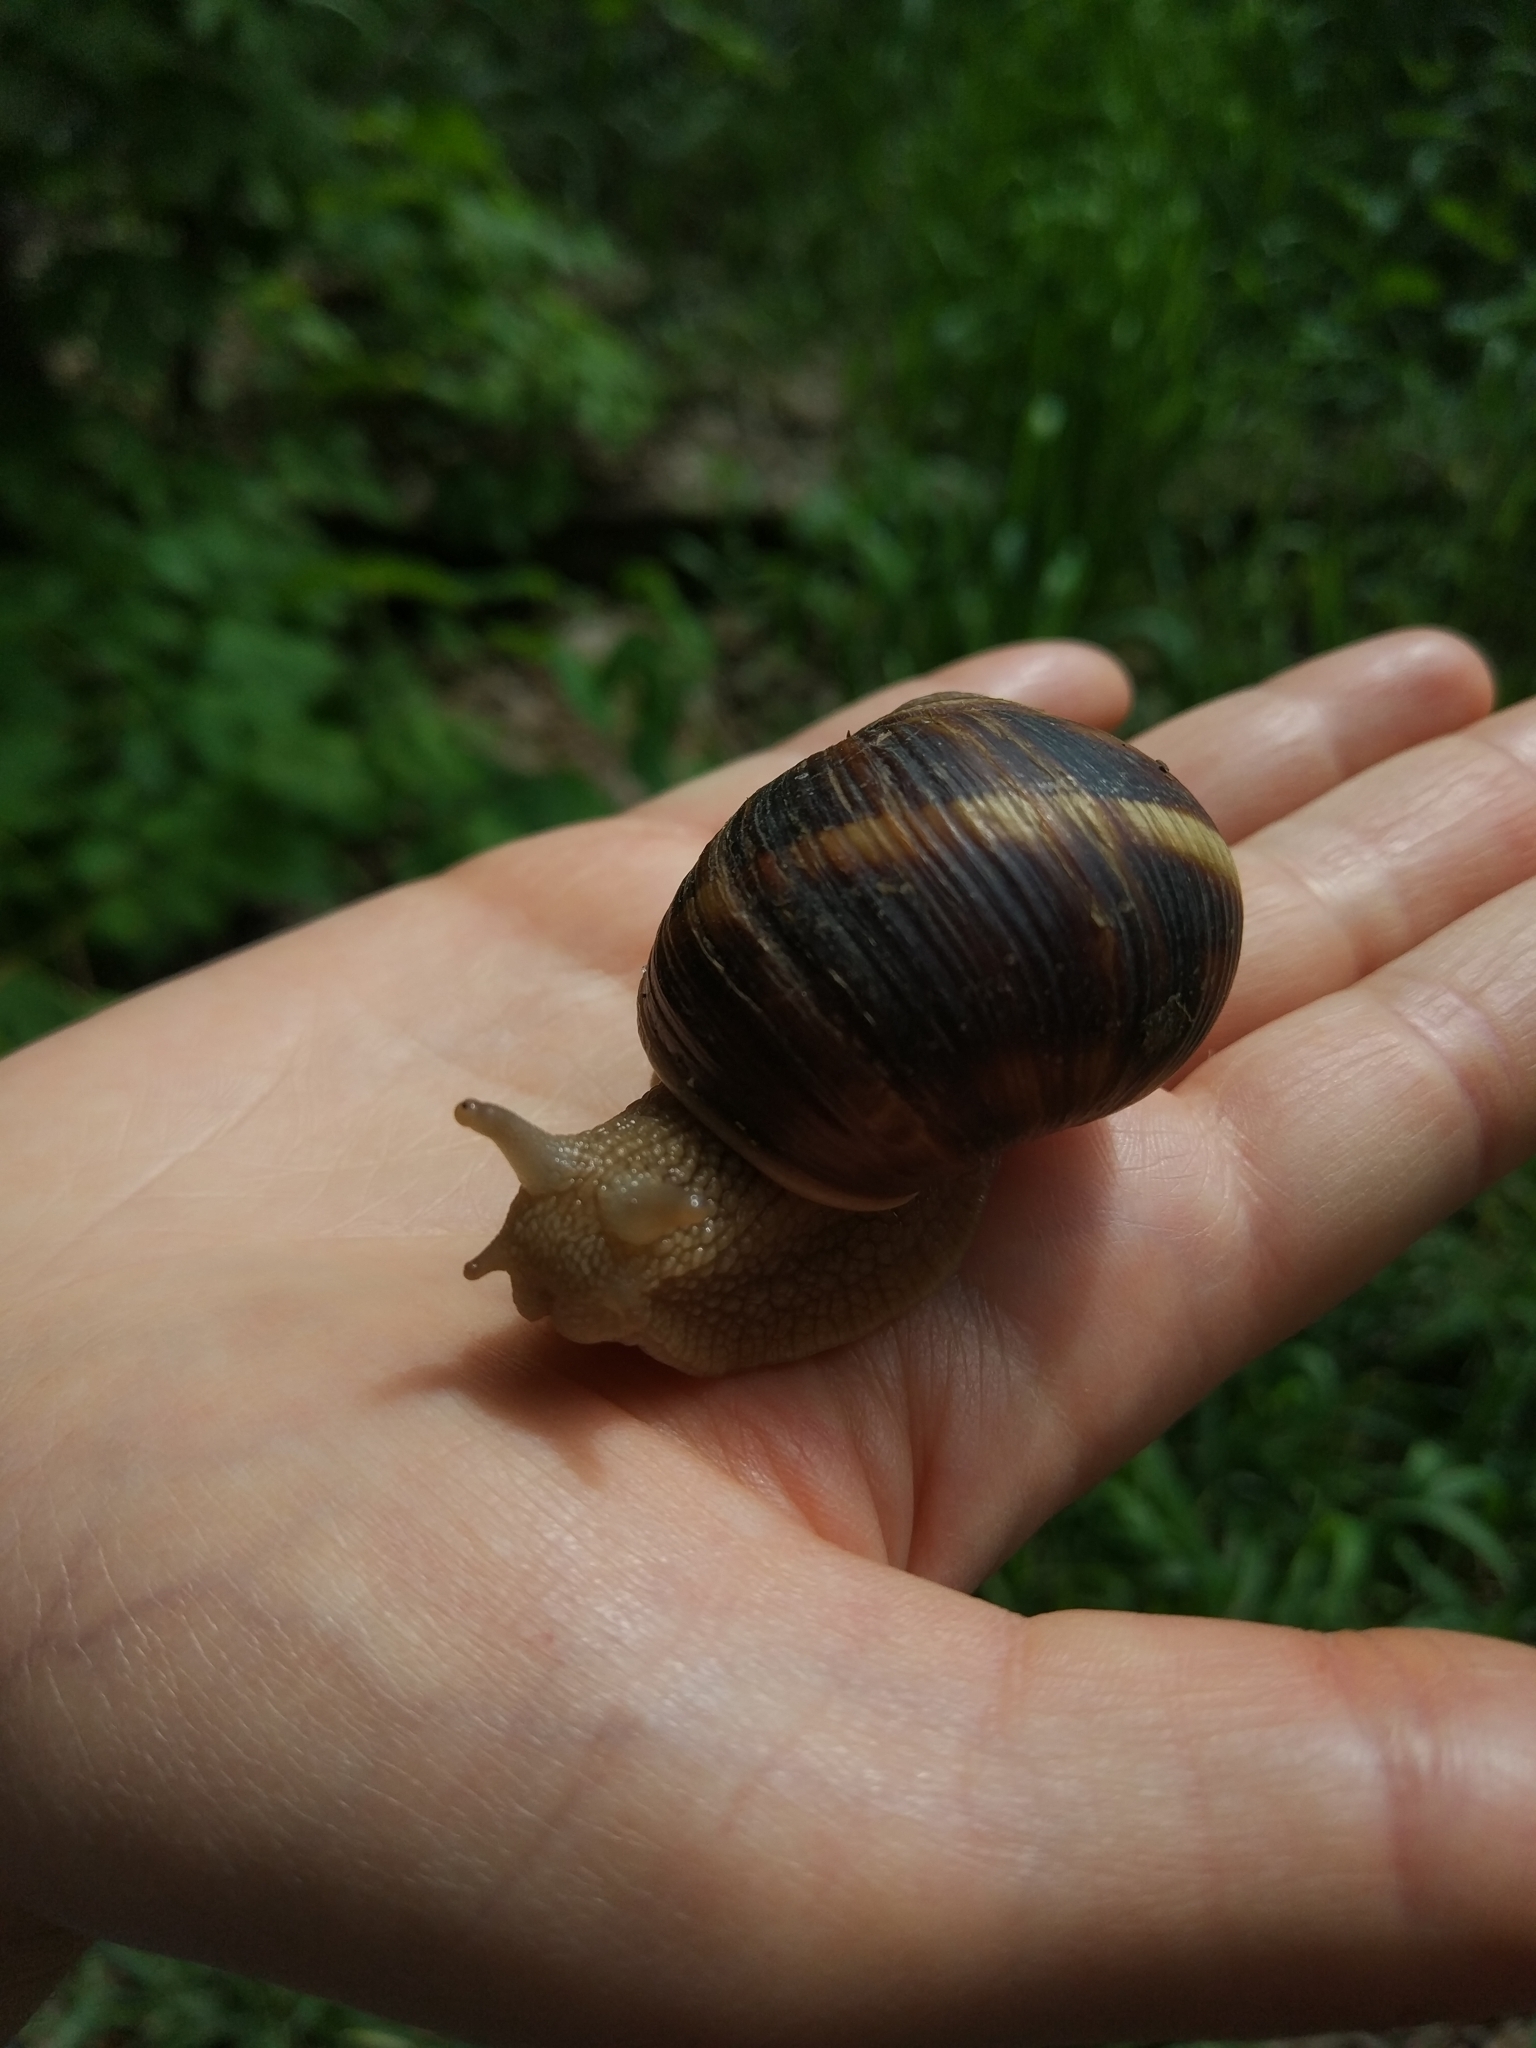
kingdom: Animalia
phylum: Mollusca
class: Gastropoda
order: Stylommatophora
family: Helicidae
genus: Helix
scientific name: Helix lucorum
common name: Turkish snail
